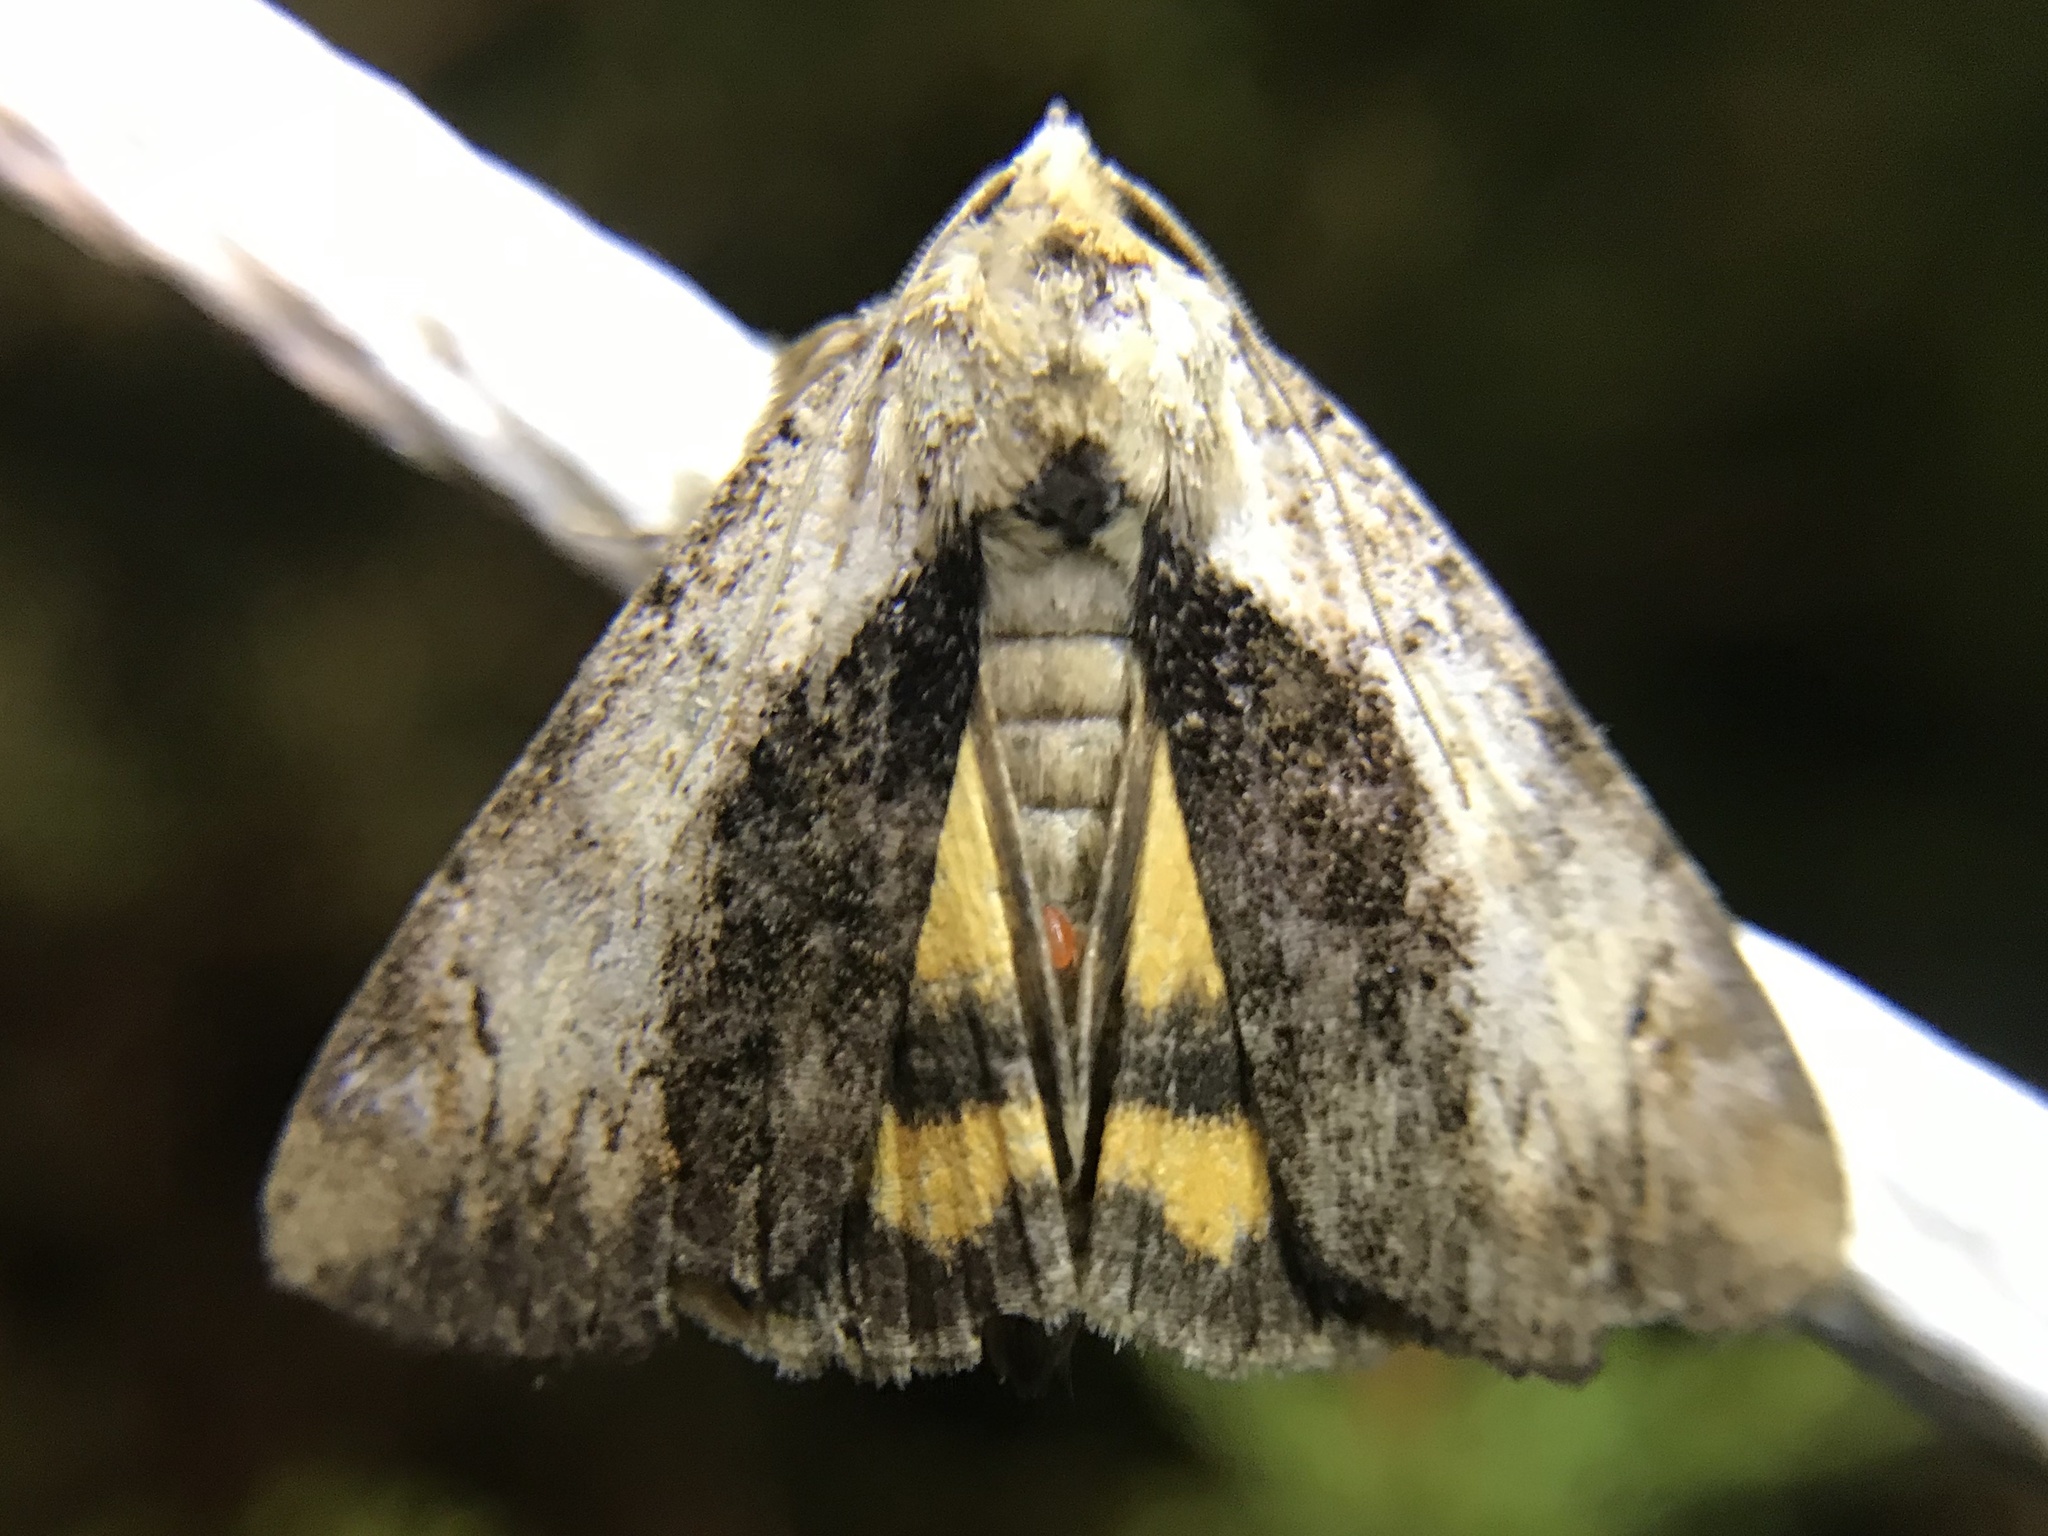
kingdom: Animalia
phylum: Arthropoda
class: Insecta
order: Lepidoptera
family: Erebidae
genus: Catocala
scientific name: Catocala minuta
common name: Little underwing
